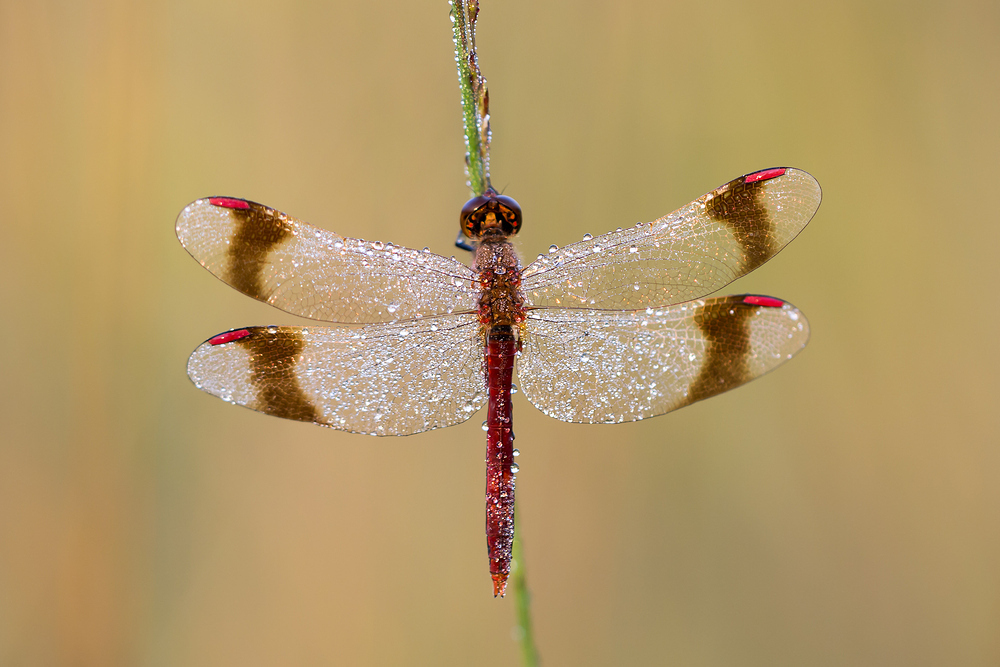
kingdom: Animalia
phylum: Arthropoda
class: Insecta
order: Odonata
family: Libellulidae
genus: Sympetrum
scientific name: Sympetrum pedemontanum
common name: Banded darter
